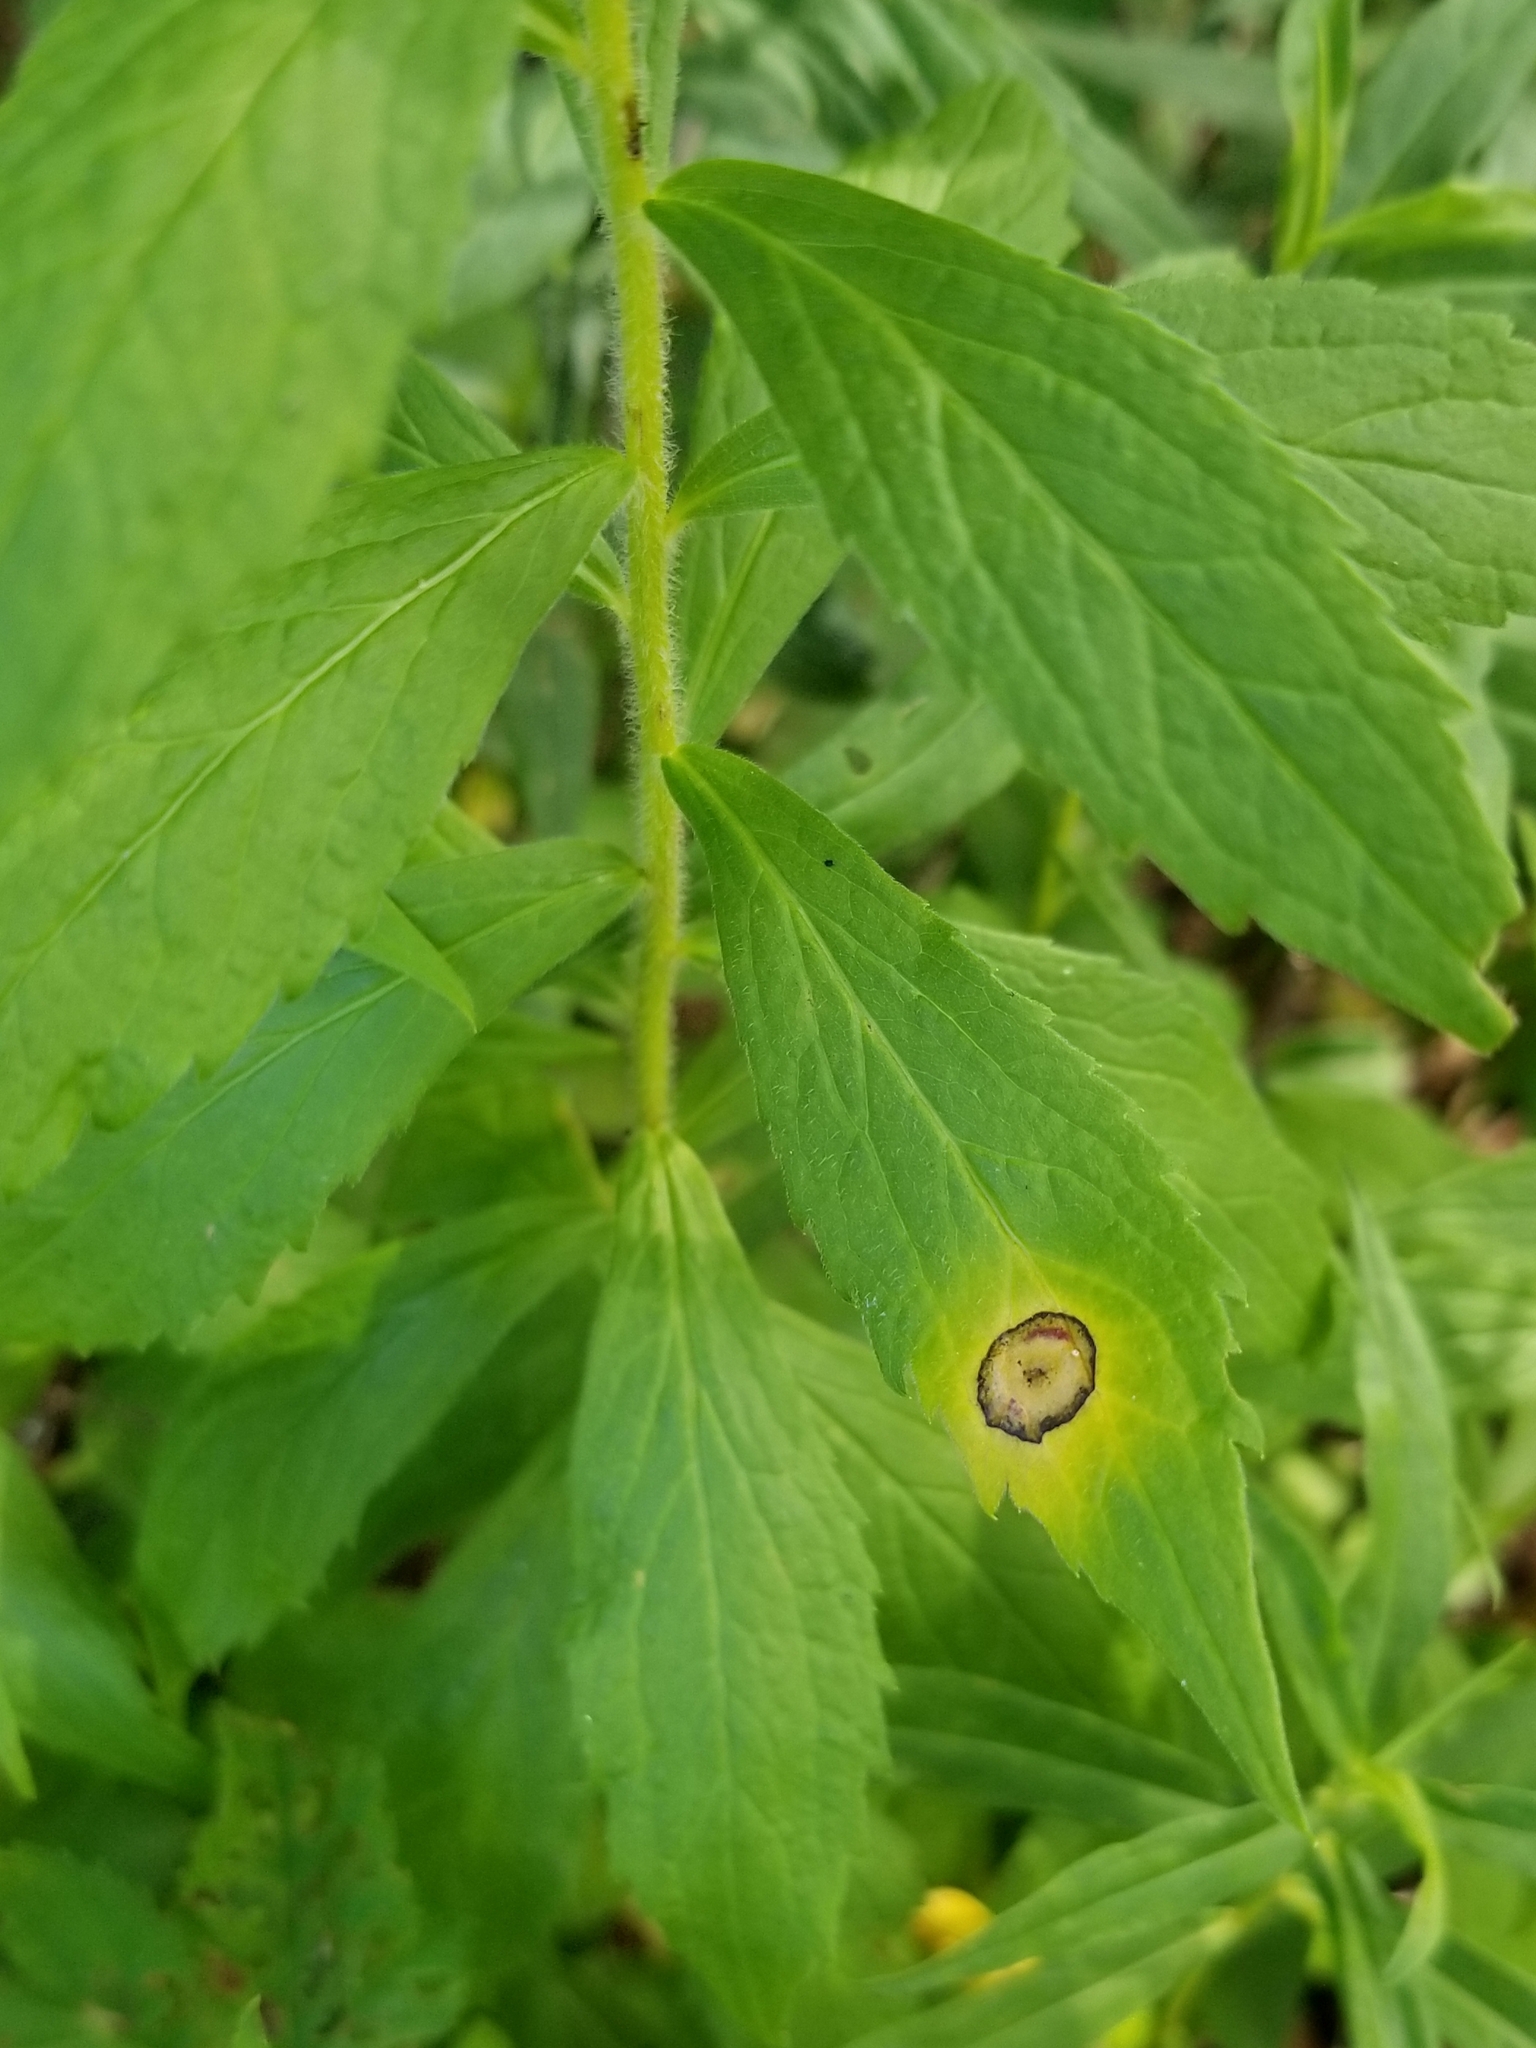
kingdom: Animalia
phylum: Arthropoda
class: Insecta
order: Diptera
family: Cecidomyiidae
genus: Asteromyia
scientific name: Asteromyia carbonifera
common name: Carbonifera goldenrod gall midge
